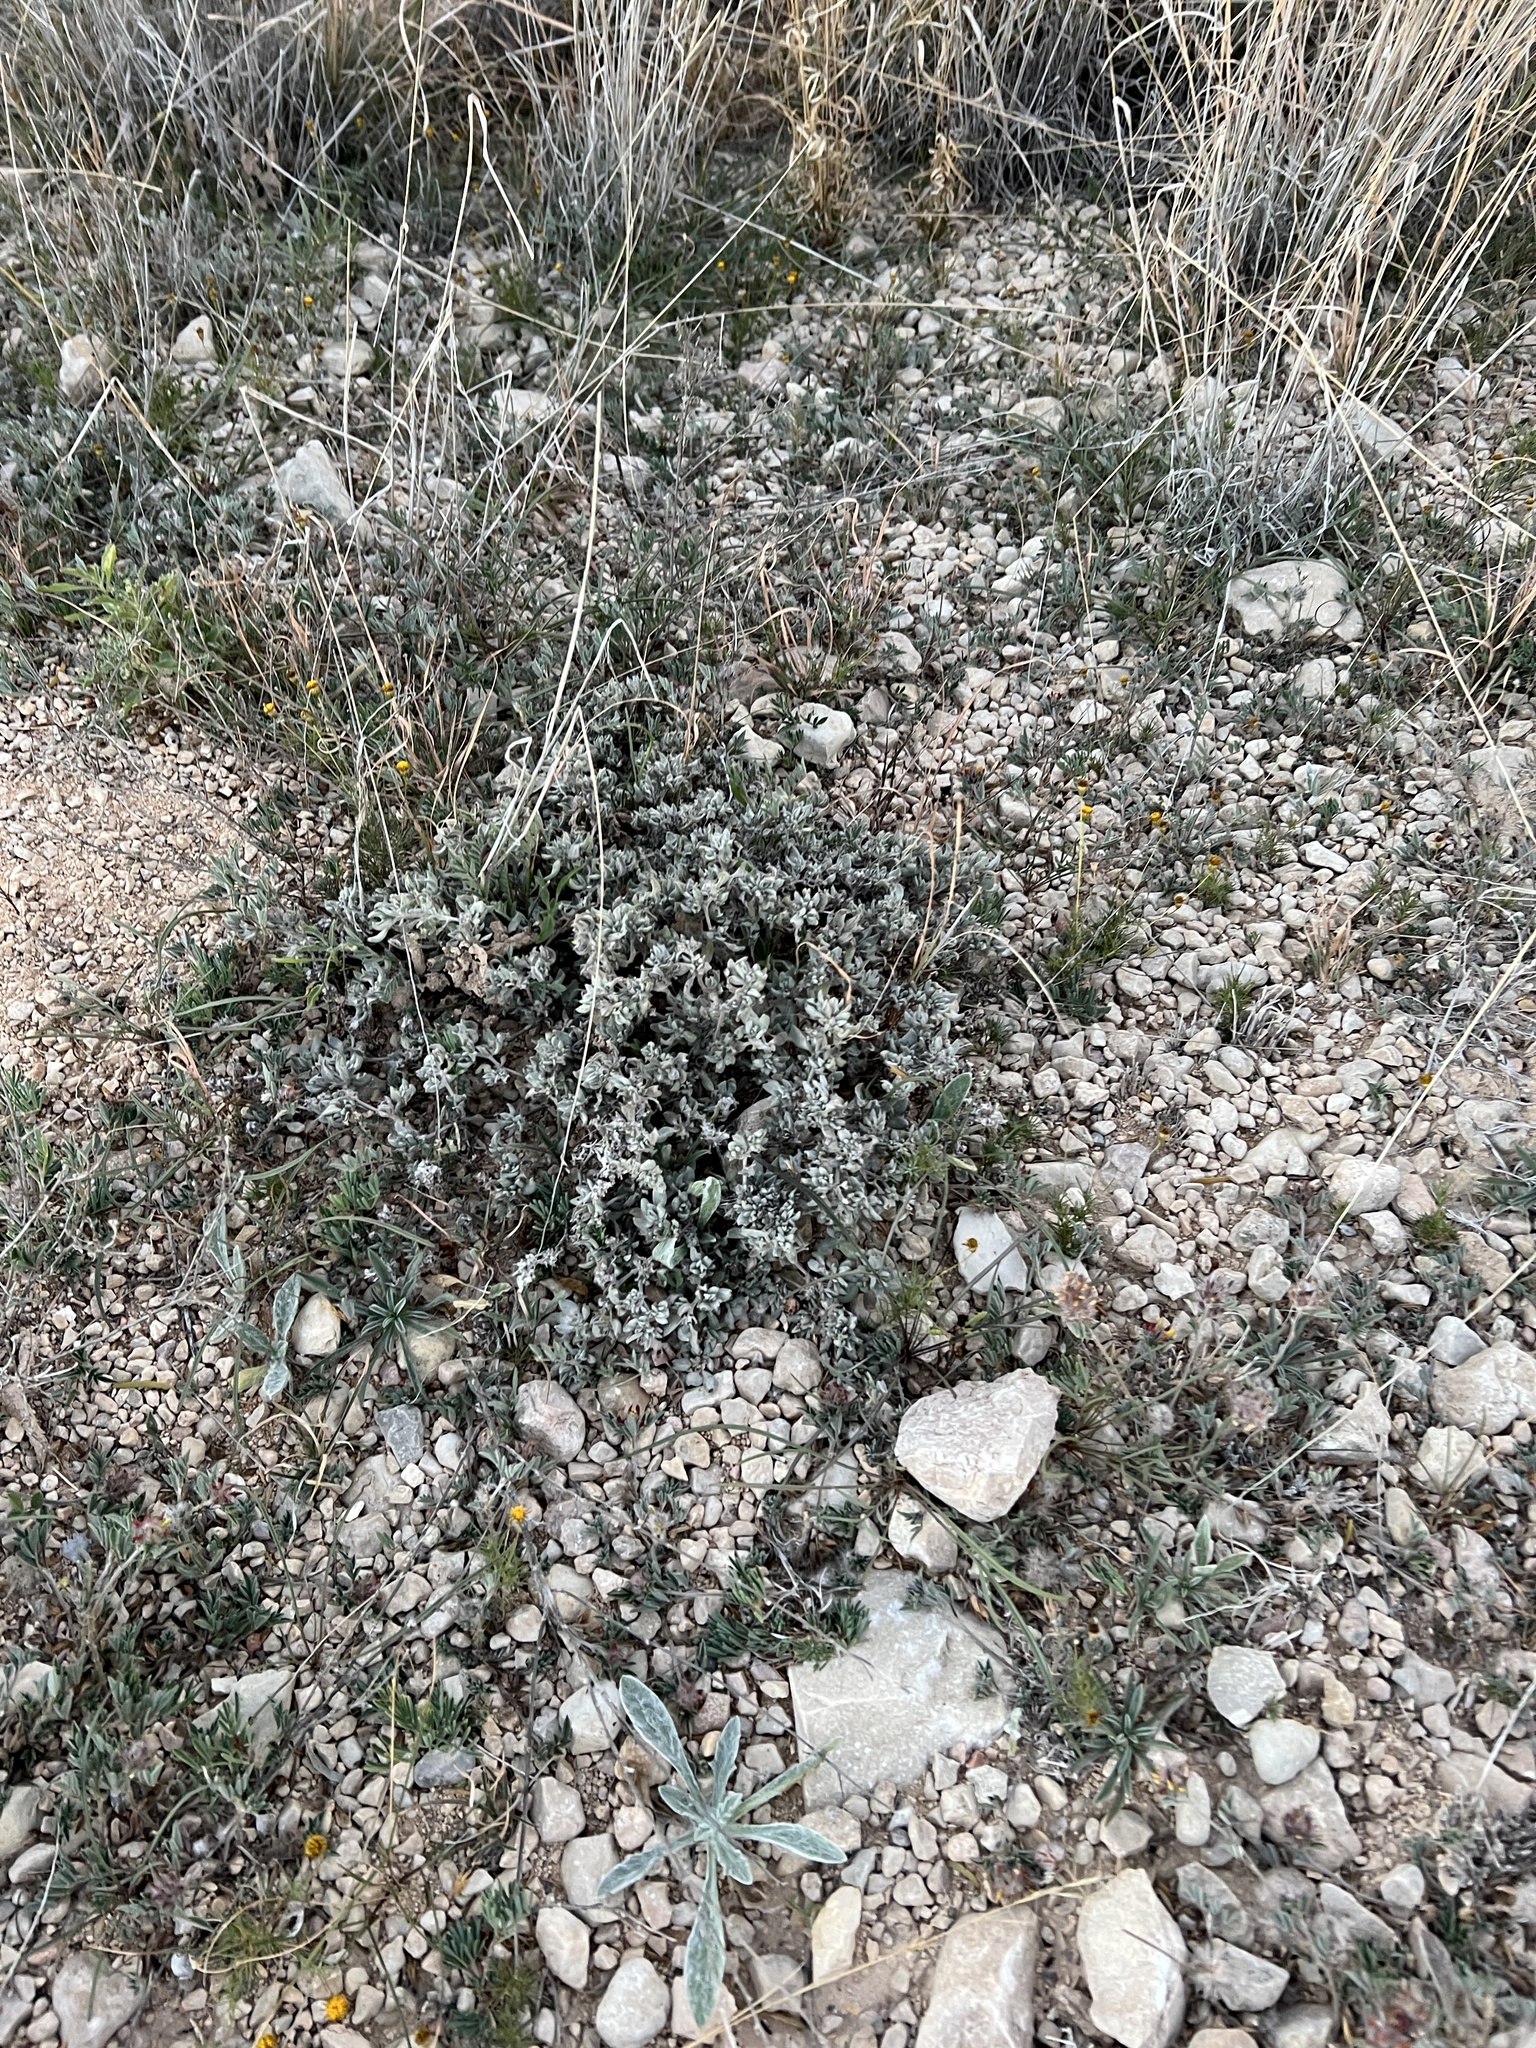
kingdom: Plantae
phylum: Tracheophyta
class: Magnoliopsida
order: Boraginales
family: Ehretiaceae
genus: Tiquilia
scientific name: Tiquilia canescens
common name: Hairy tiquilia
